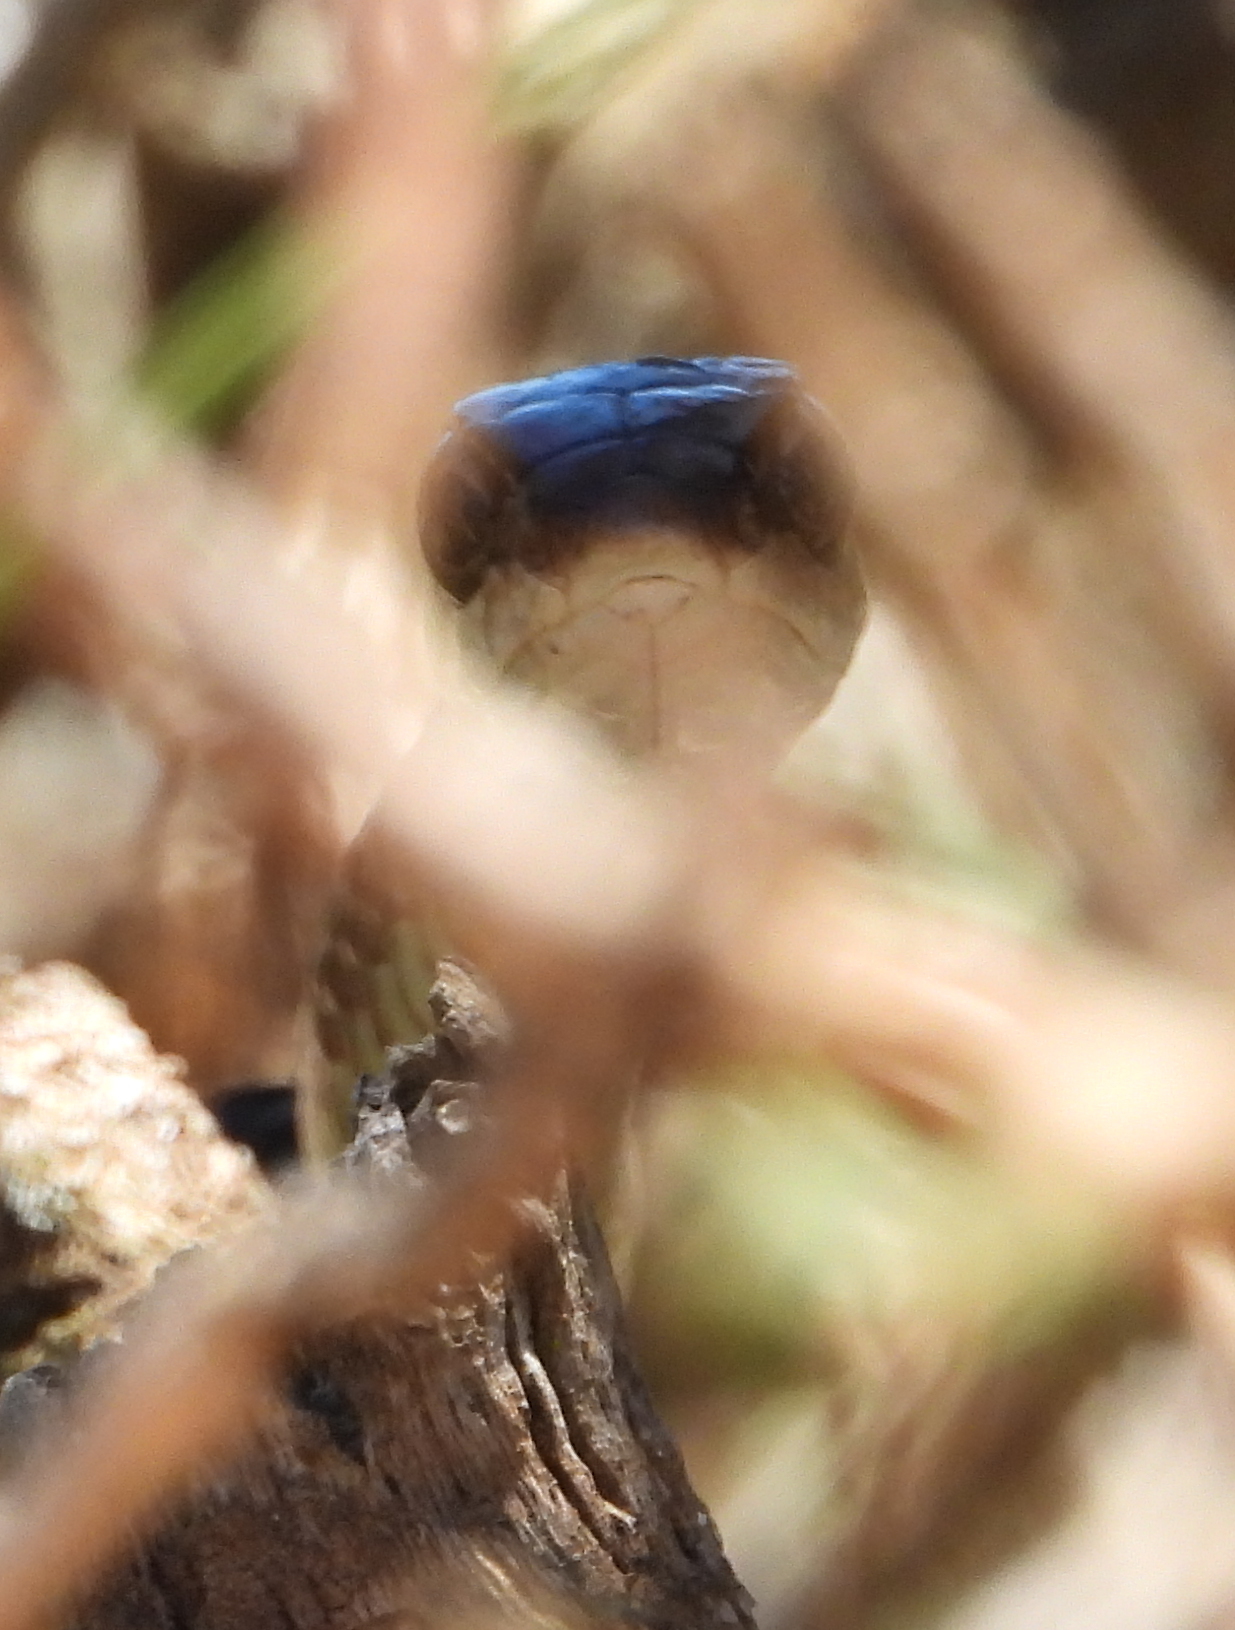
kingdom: Animalia
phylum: Chordata
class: Squamata
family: Colubridae
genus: Dispholidus
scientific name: Dispholidus typus
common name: Boomslang
